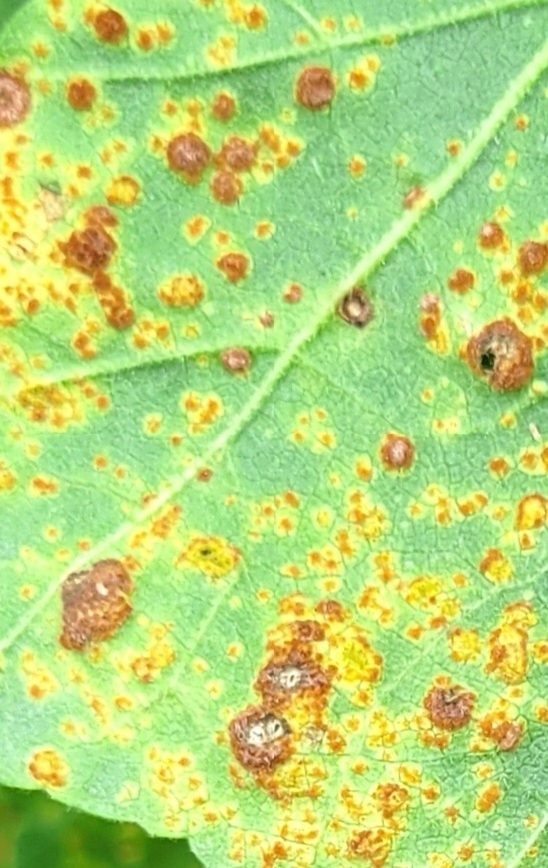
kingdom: Fungi
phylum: Basidiomycota
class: Pucciniomycetes
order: Pucciniales
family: Pucciniaceae
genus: Puccinia
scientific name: Puccinia malvacearum
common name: Hollyhock rust
